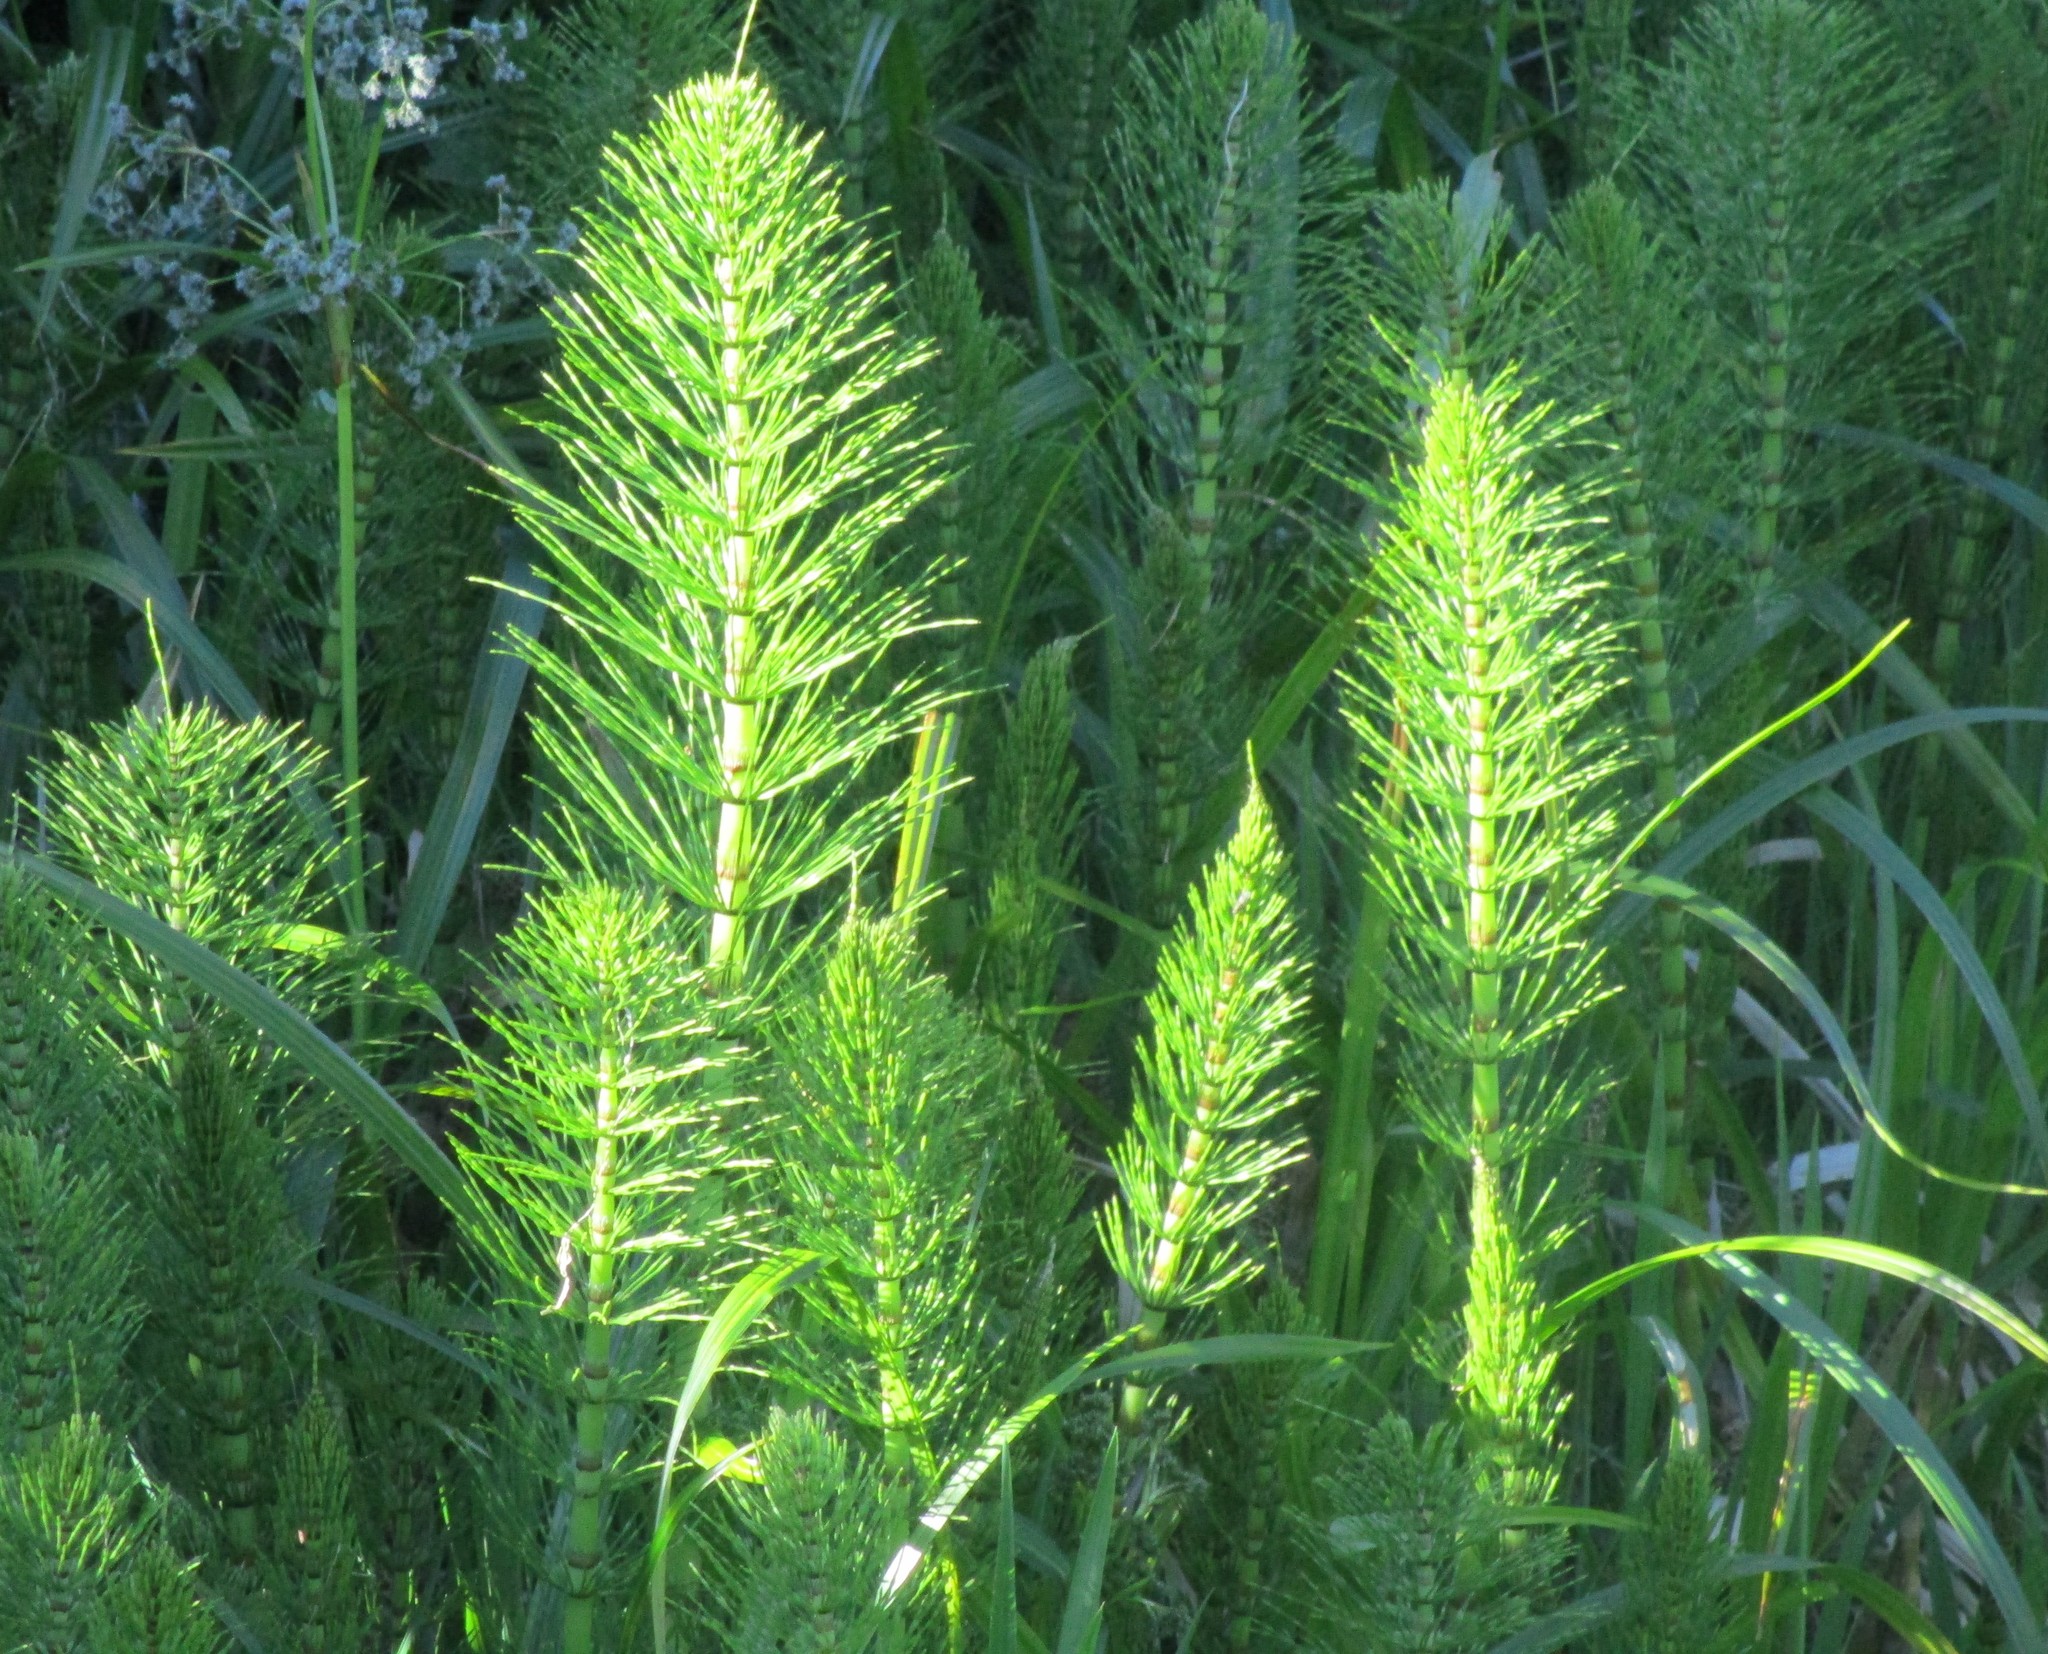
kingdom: Plantae
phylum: Tracheophyta
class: Polypodiopsida
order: Equisetales
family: Equisetaceae
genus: Equisetum
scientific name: Equisetum telmateia
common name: Great horsetail
